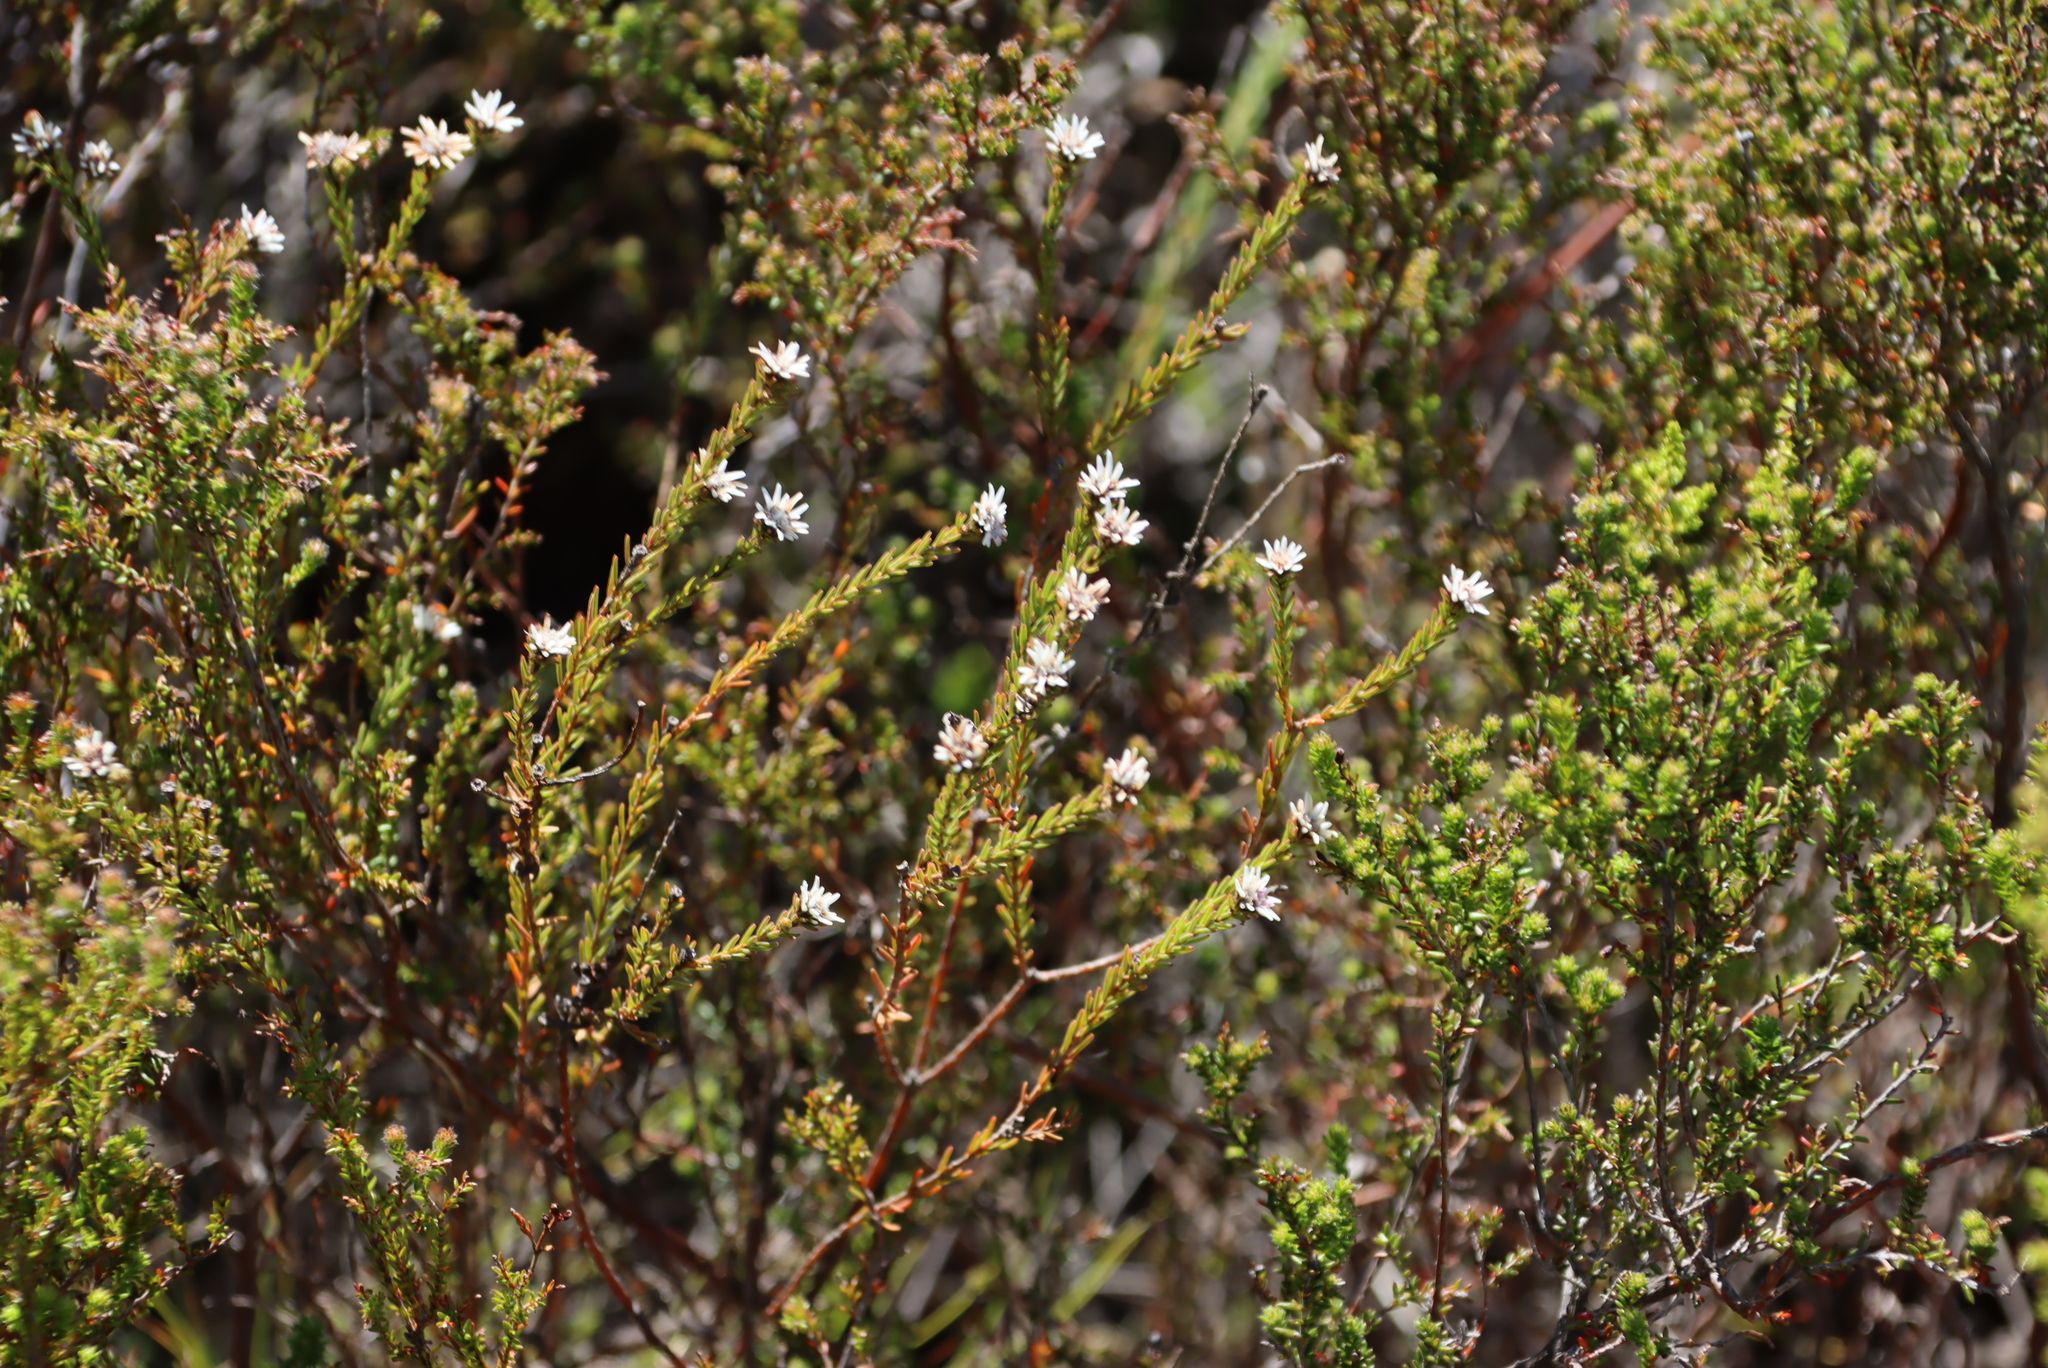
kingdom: Plantae
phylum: Tracheophyta
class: Magnoliopsida
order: Bruniales
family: Bruniaceae
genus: Staavia
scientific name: Staavia radiata
